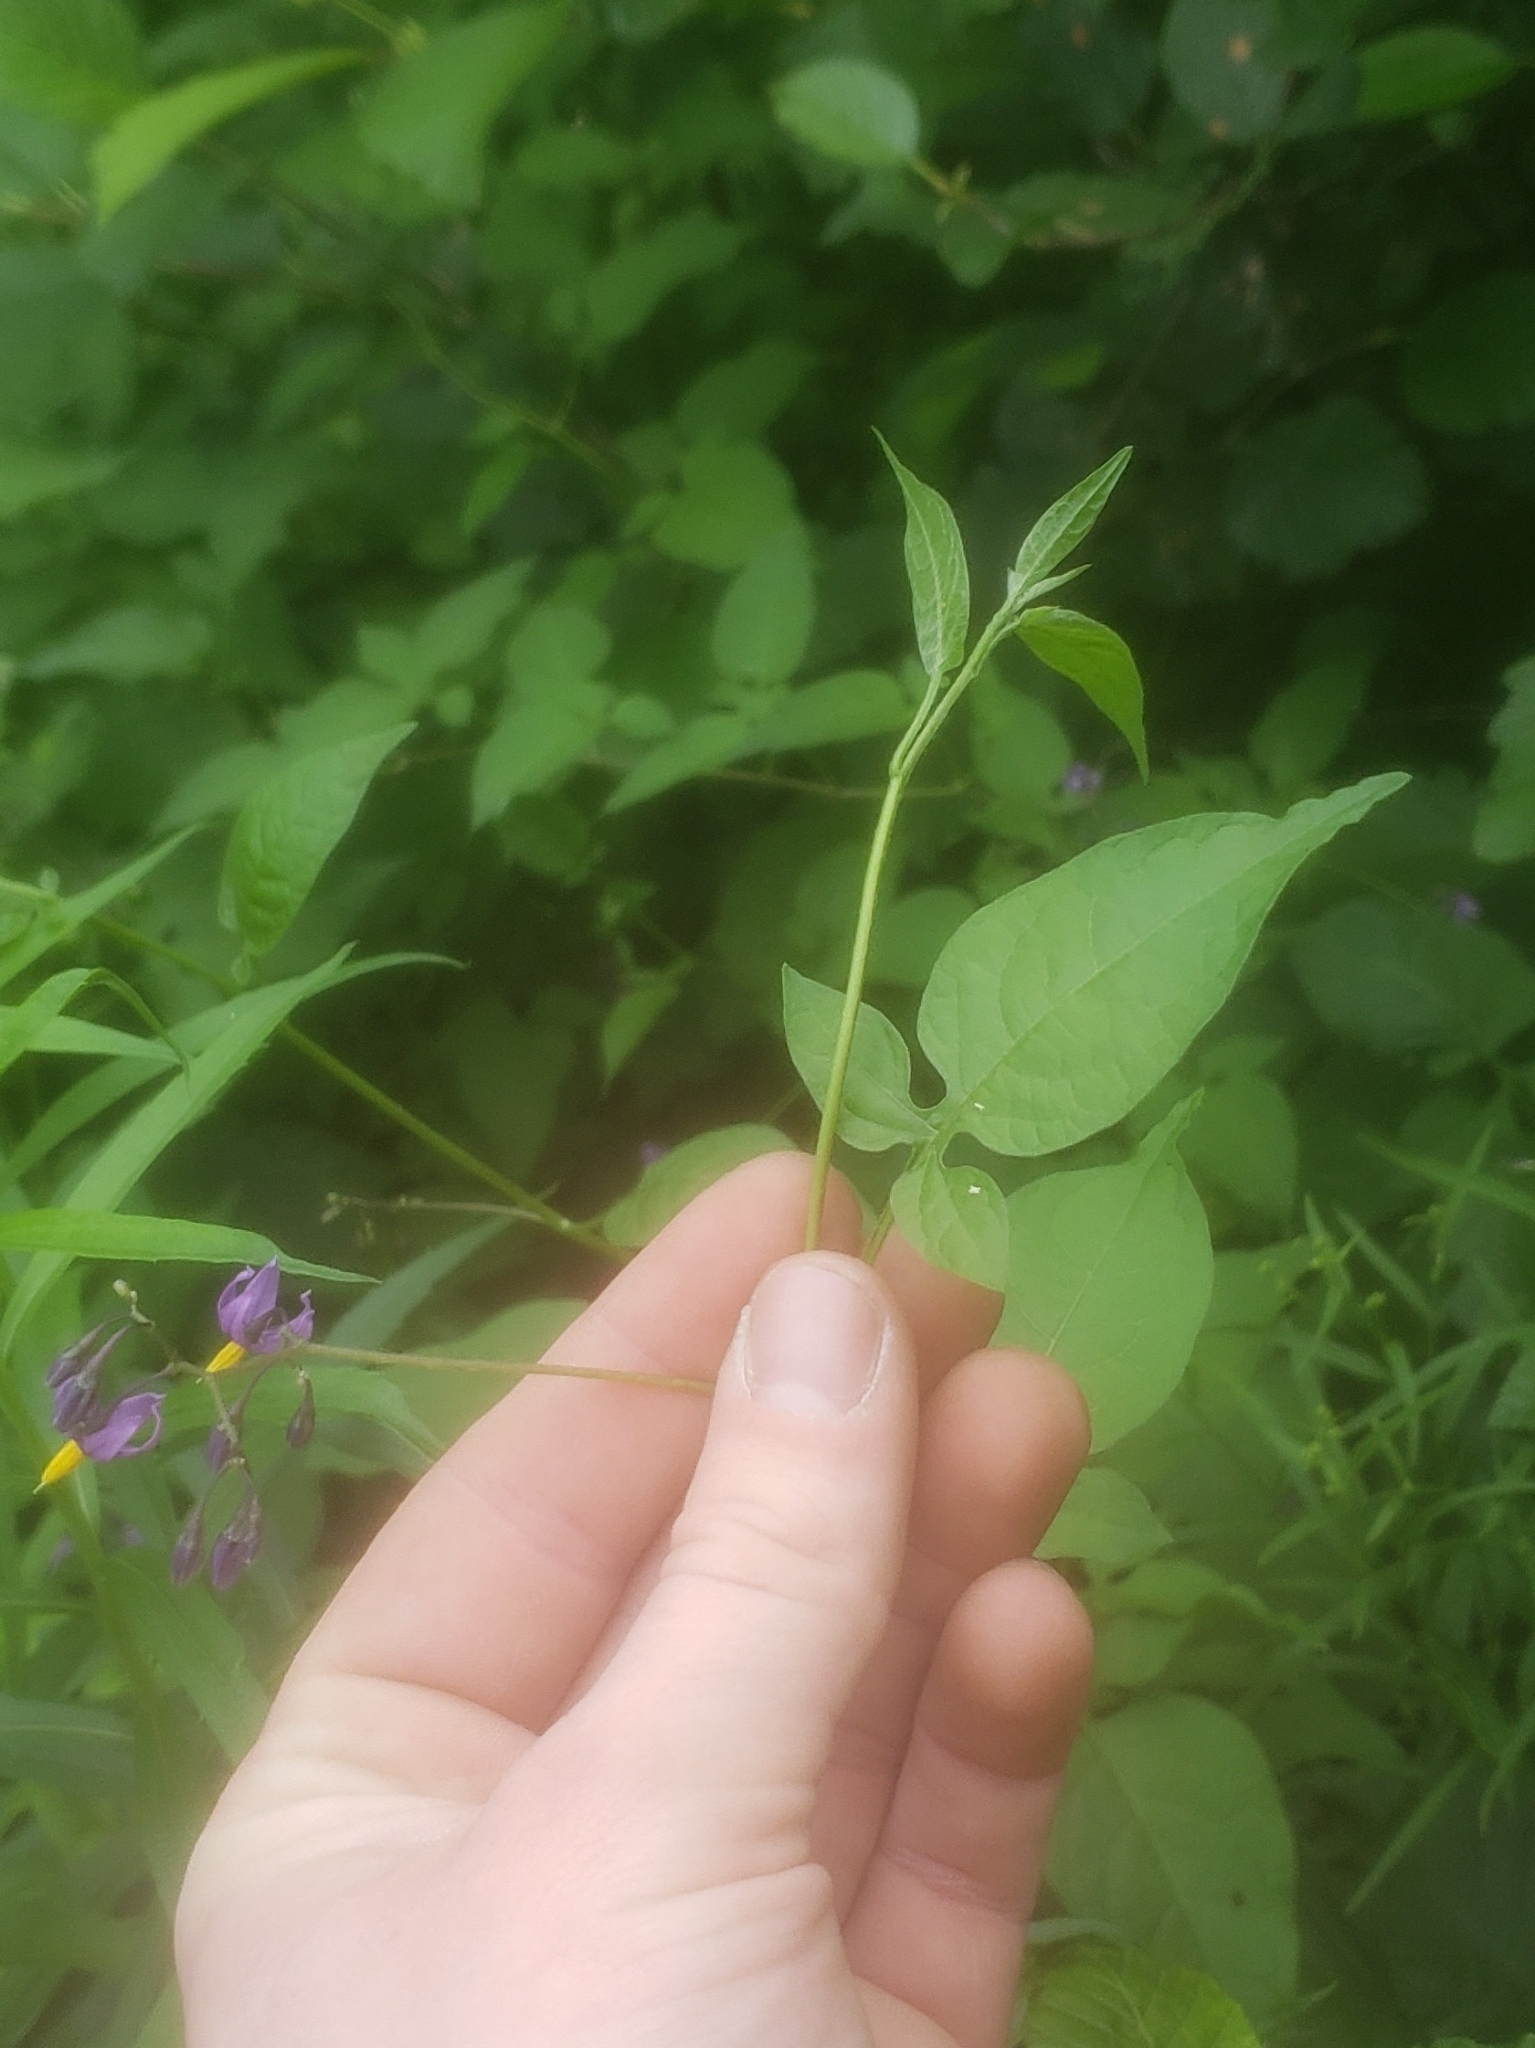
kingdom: Plantae
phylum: Tracheophyta
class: Magnoliopsida
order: Solanales
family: Solanaceae
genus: Solanum
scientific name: Solanum dulcamara
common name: Climbing nightshade
